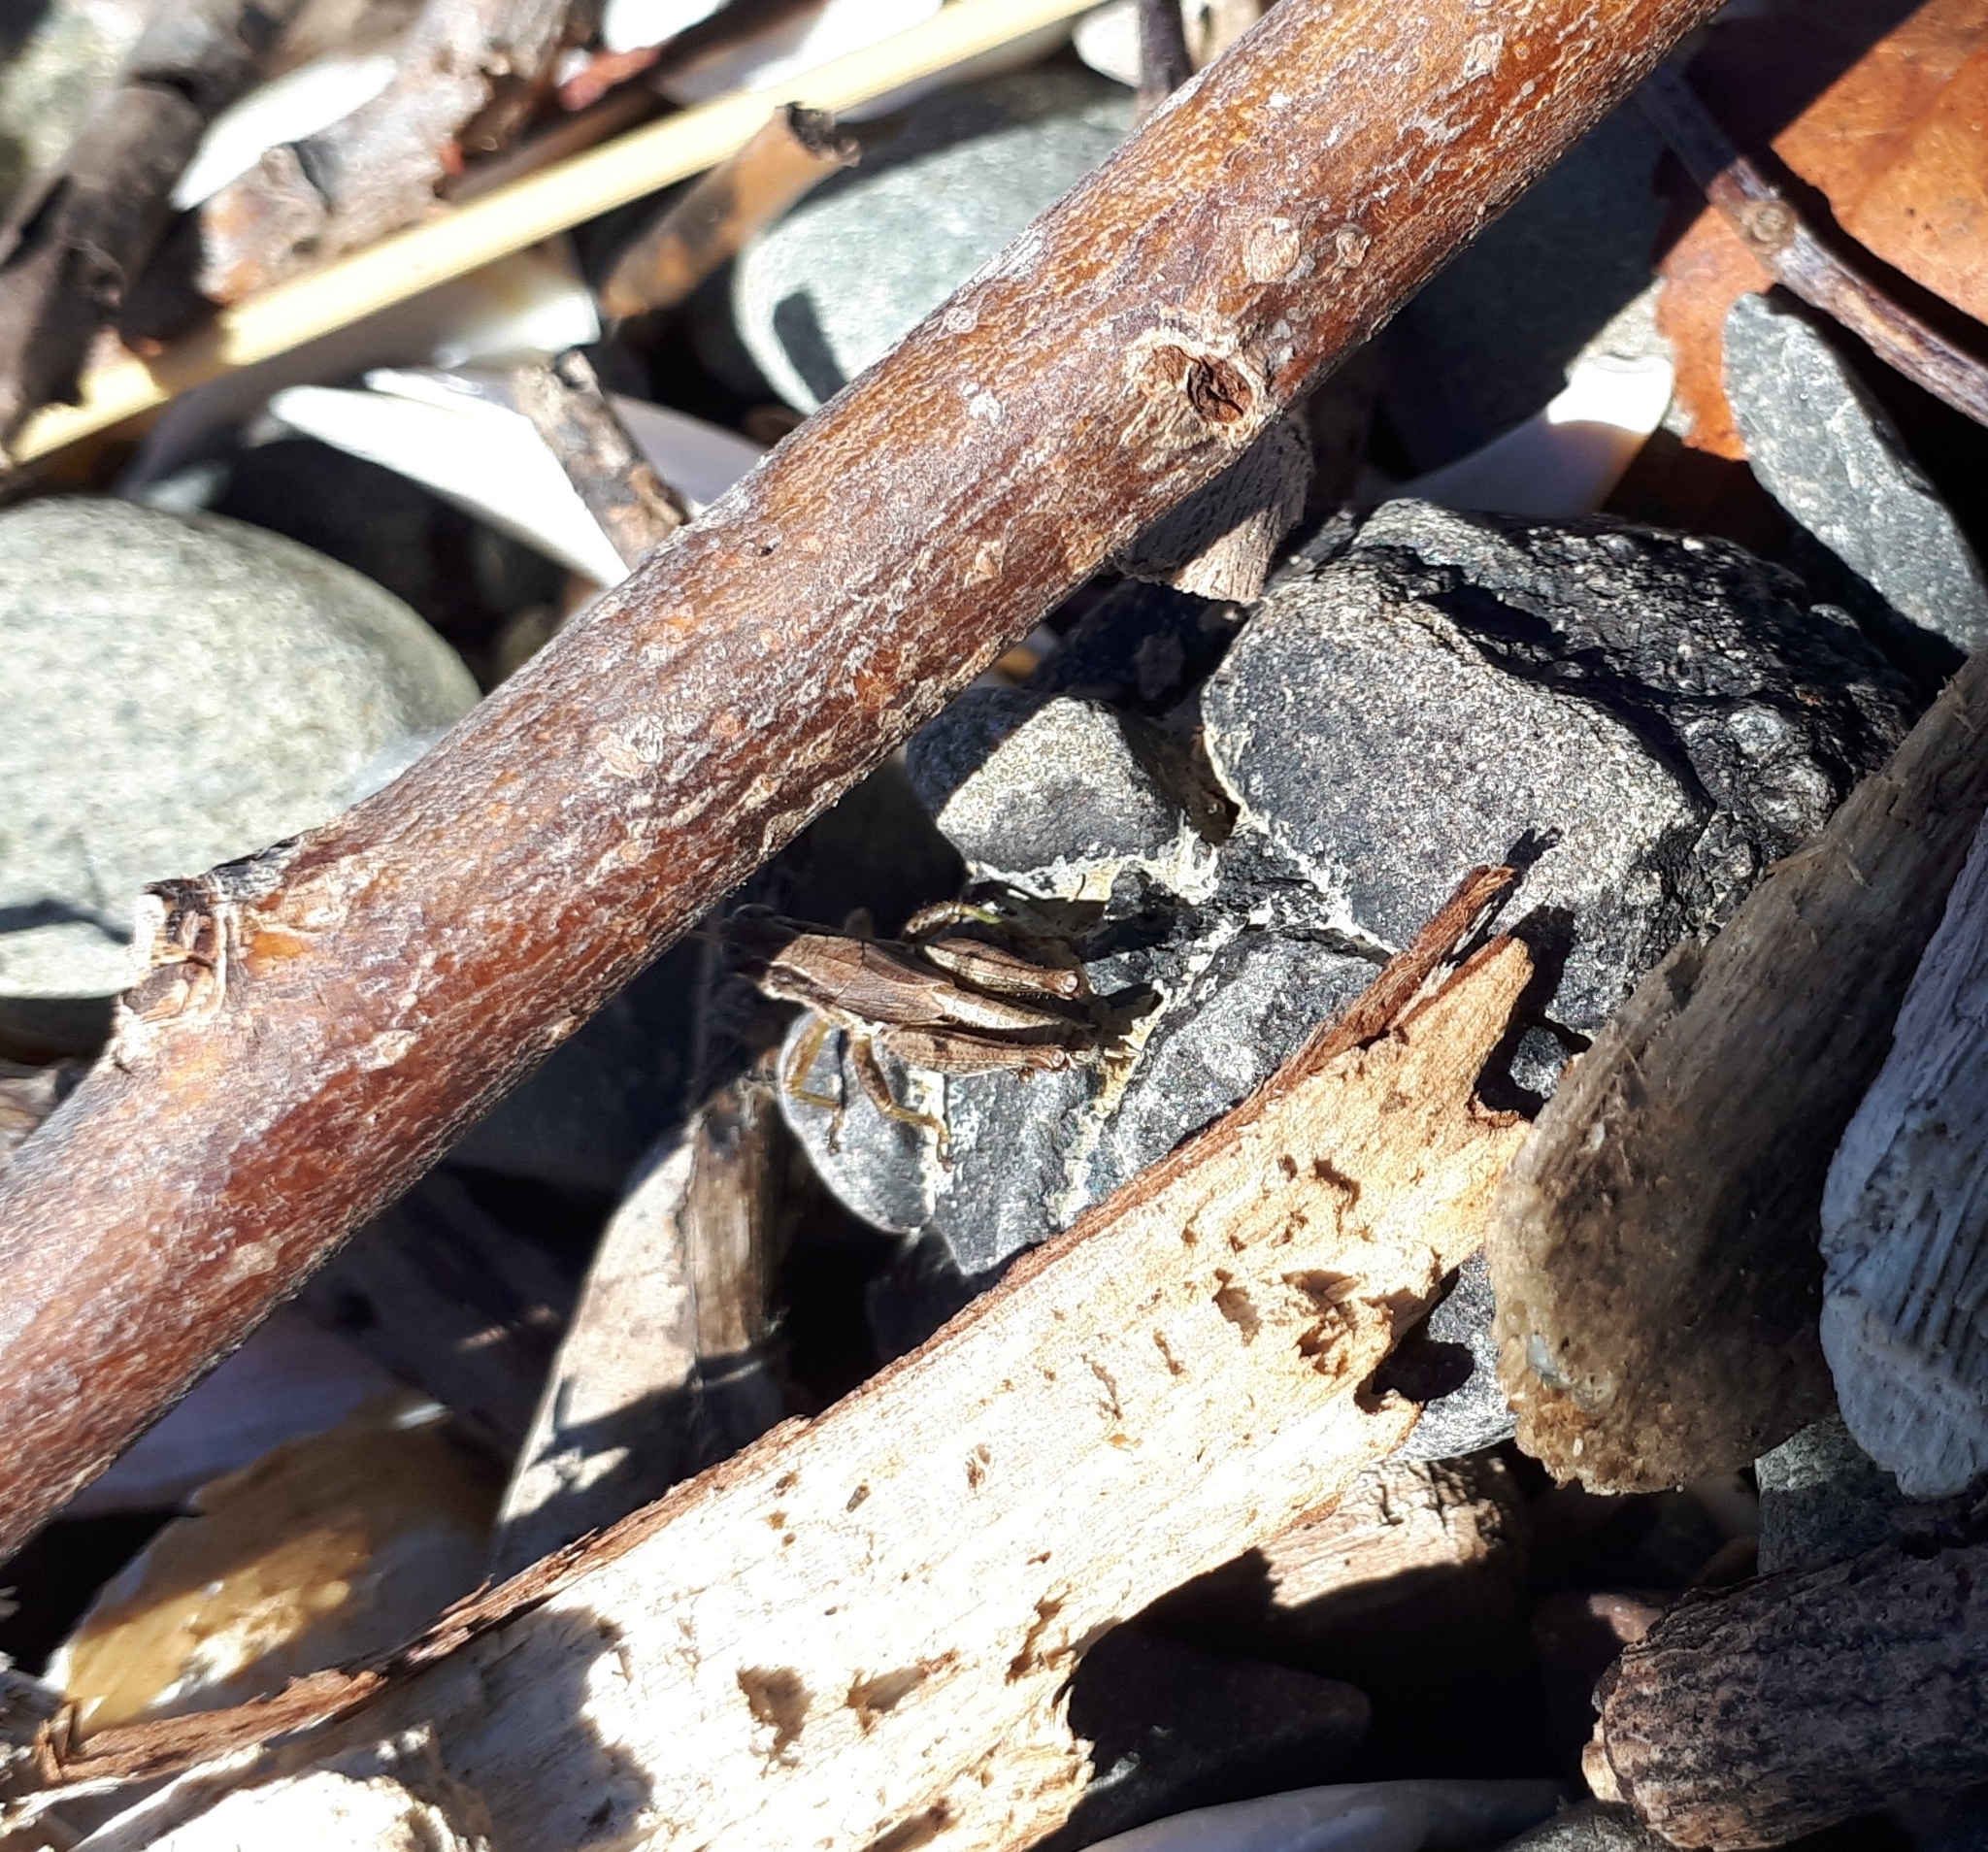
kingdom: Animalia
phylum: Arthropoda
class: Insecta
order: Orthoptera
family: Acrididae
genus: Phaulacridium
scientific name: Phaulacridium marginale
